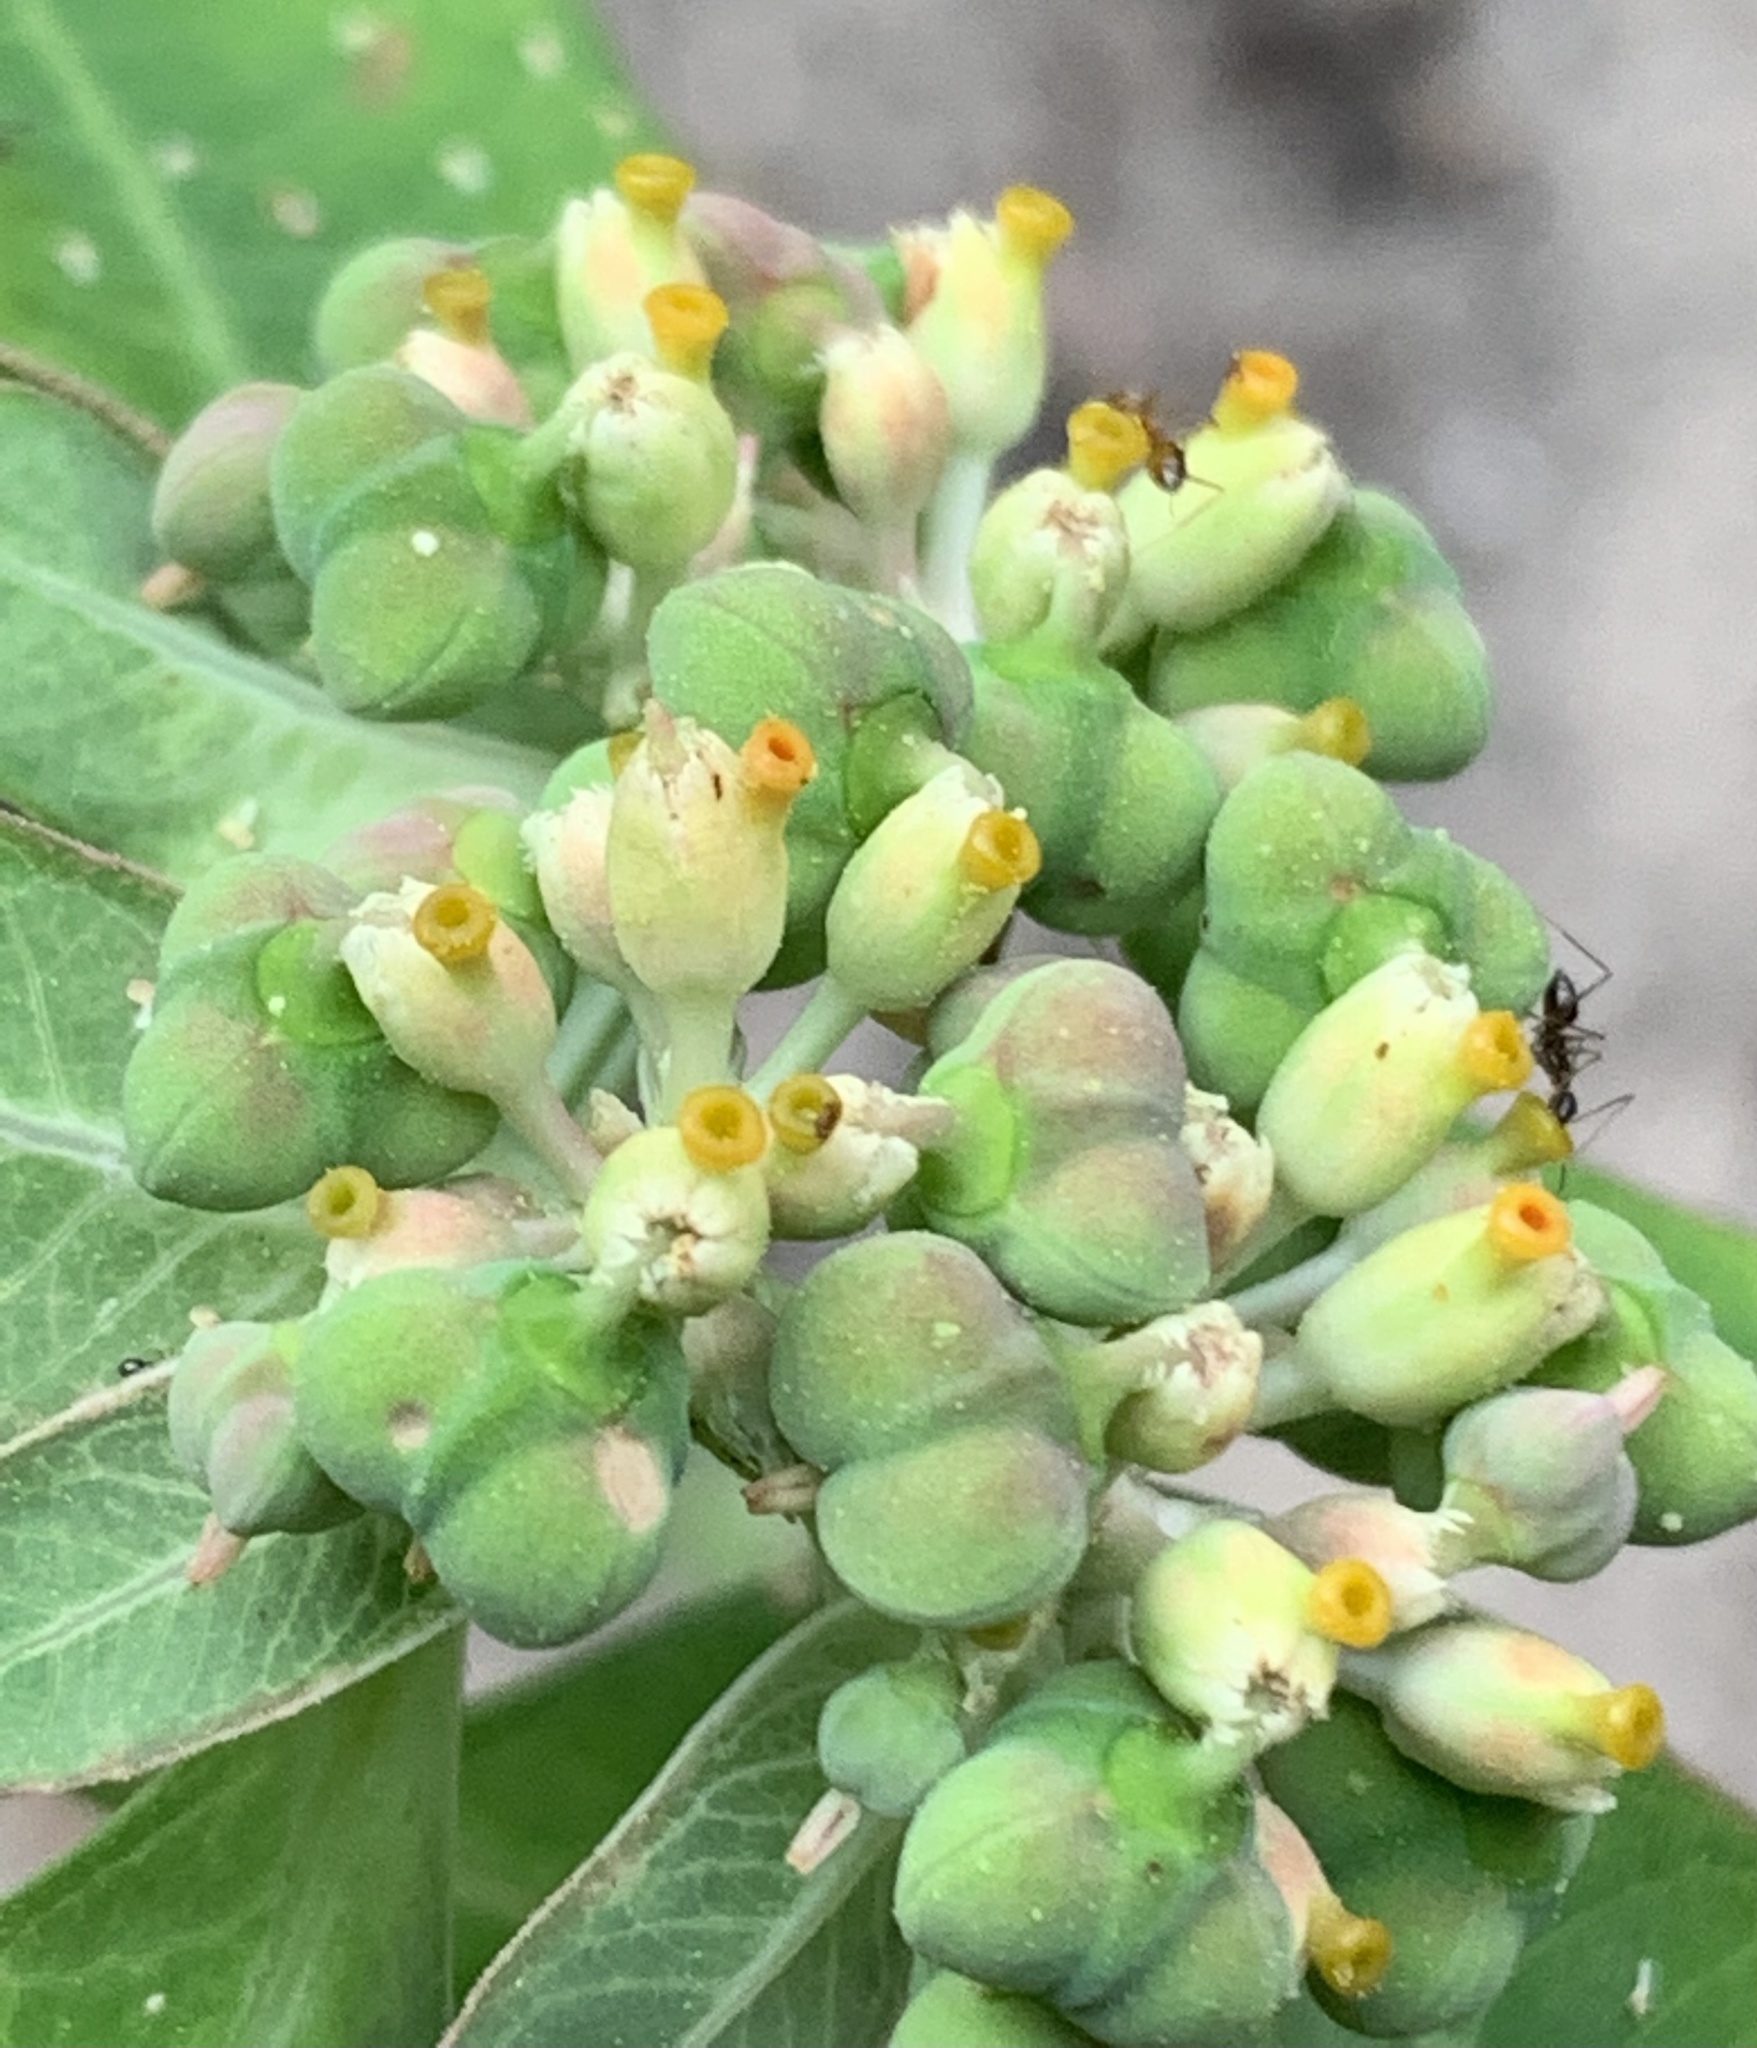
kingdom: Plantae
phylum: Tracheophyta
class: Magnoliopsida
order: Malpighiales
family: Euphorbiaceae
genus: Euphorbia
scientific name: Euphorbia heterophylla
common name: Mexican fireplant
